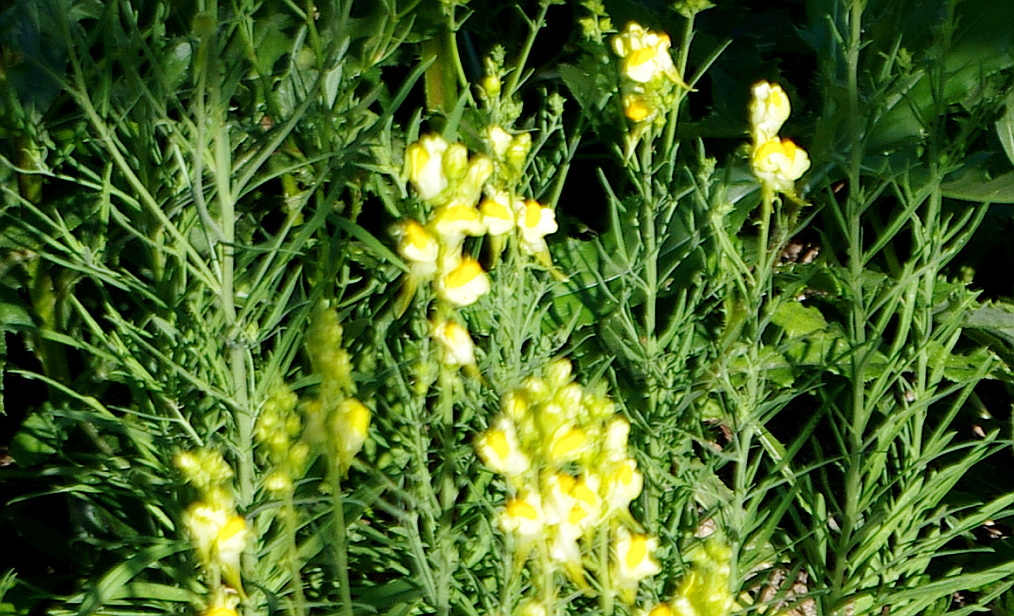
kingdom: Plantae
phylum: Tracheophyta
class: Magnoliopsida
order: Lamiales
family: Plantaginaceae
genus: Linaria
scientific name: Linaria vulgaris
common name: Butter and eggs
